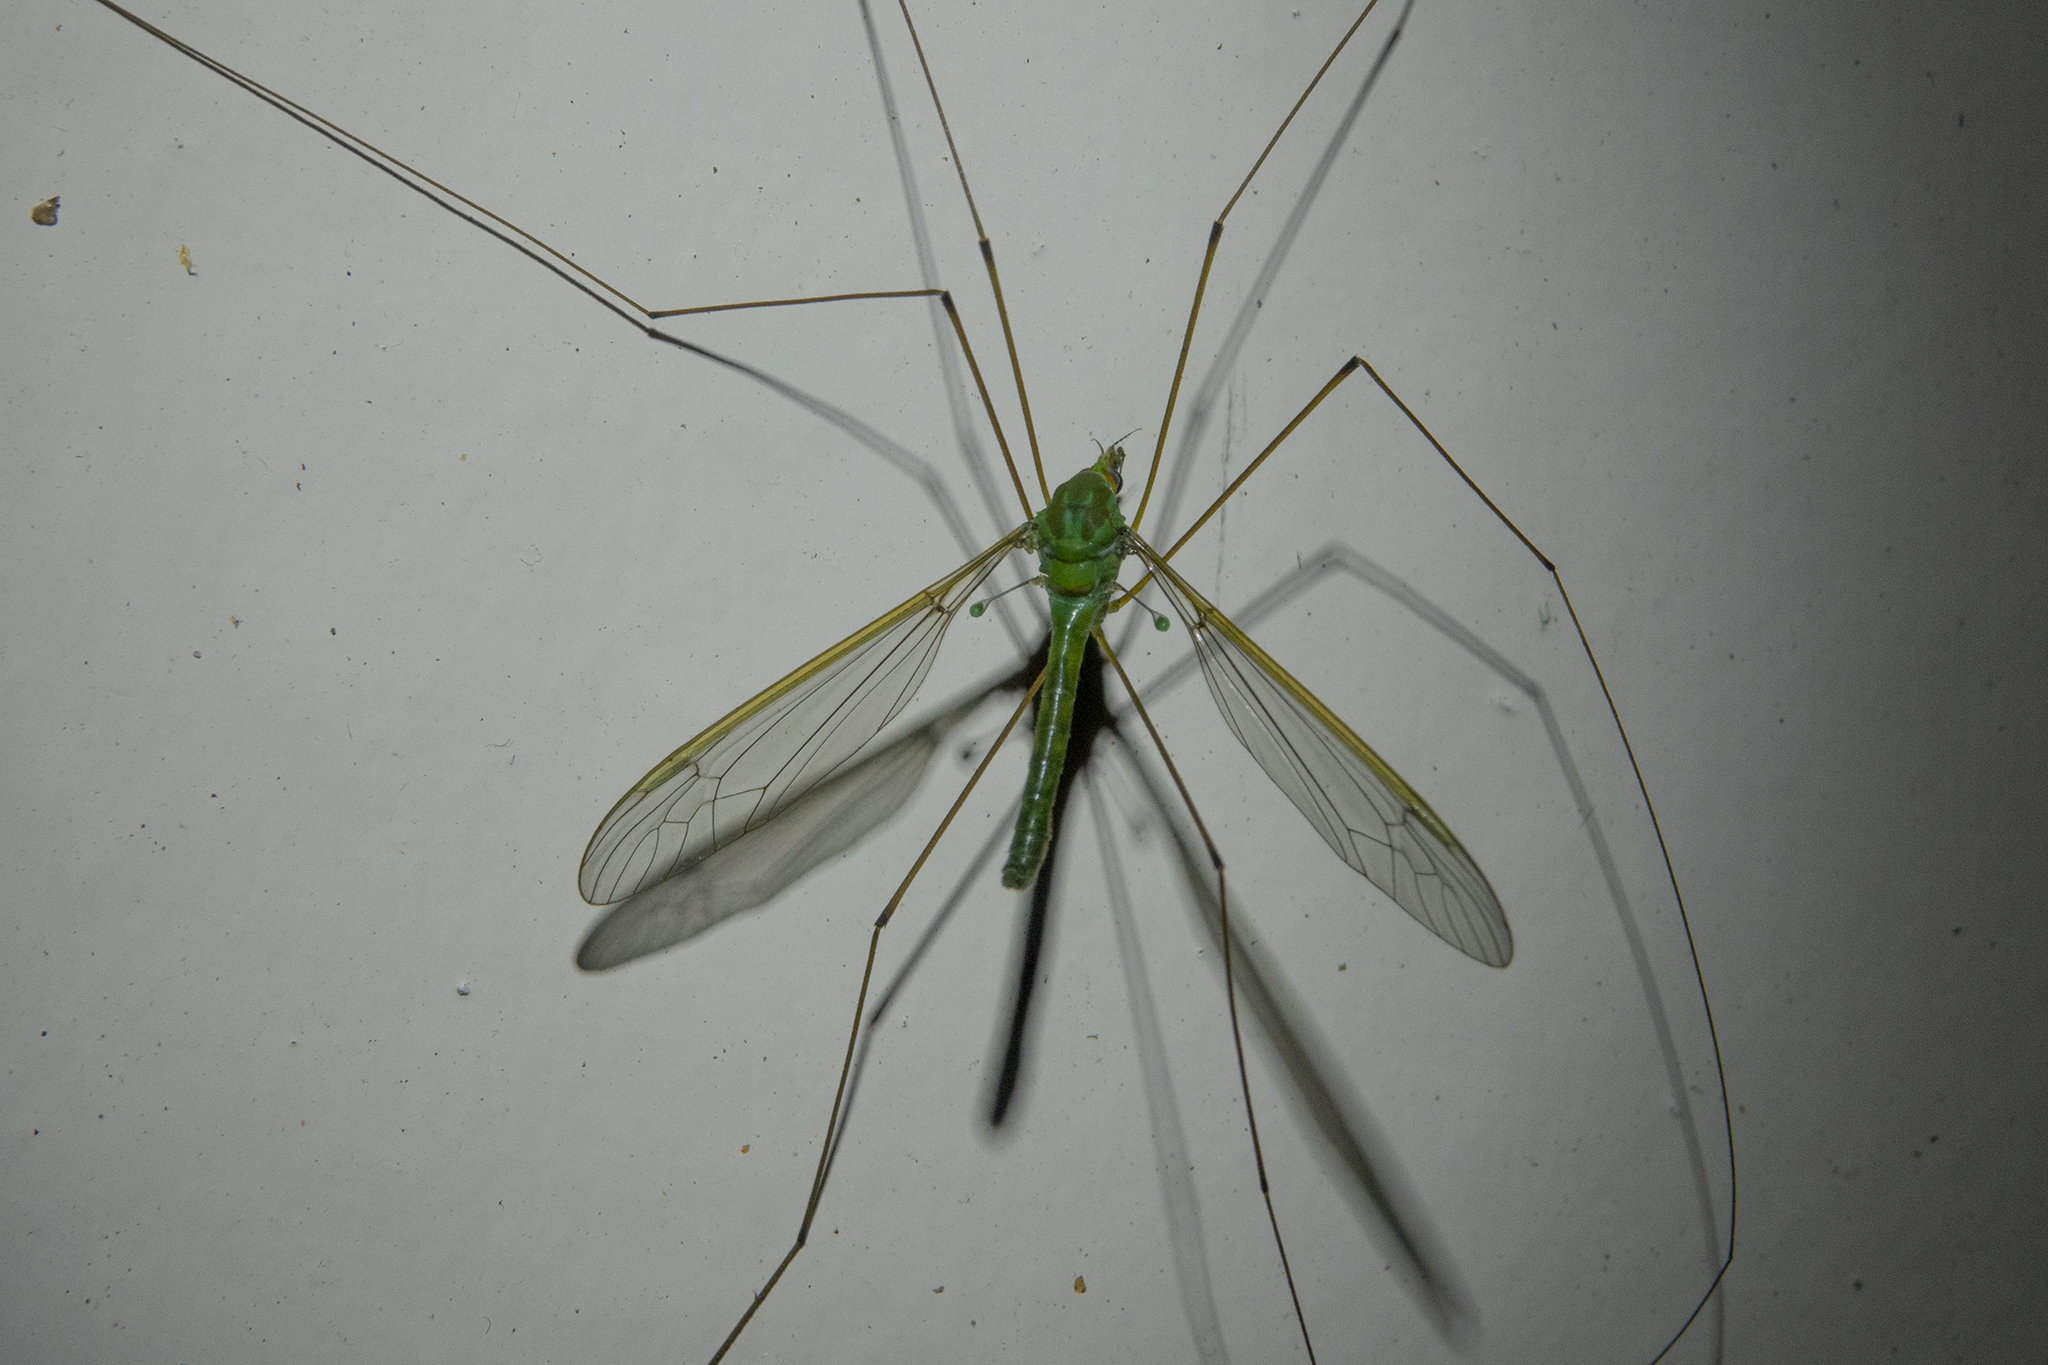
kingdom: Animalia
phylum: Arthropoda
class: Insecta
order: Diptera
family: Tipulidae
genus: Leptotarsus
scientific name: Leptotarsus virescens
